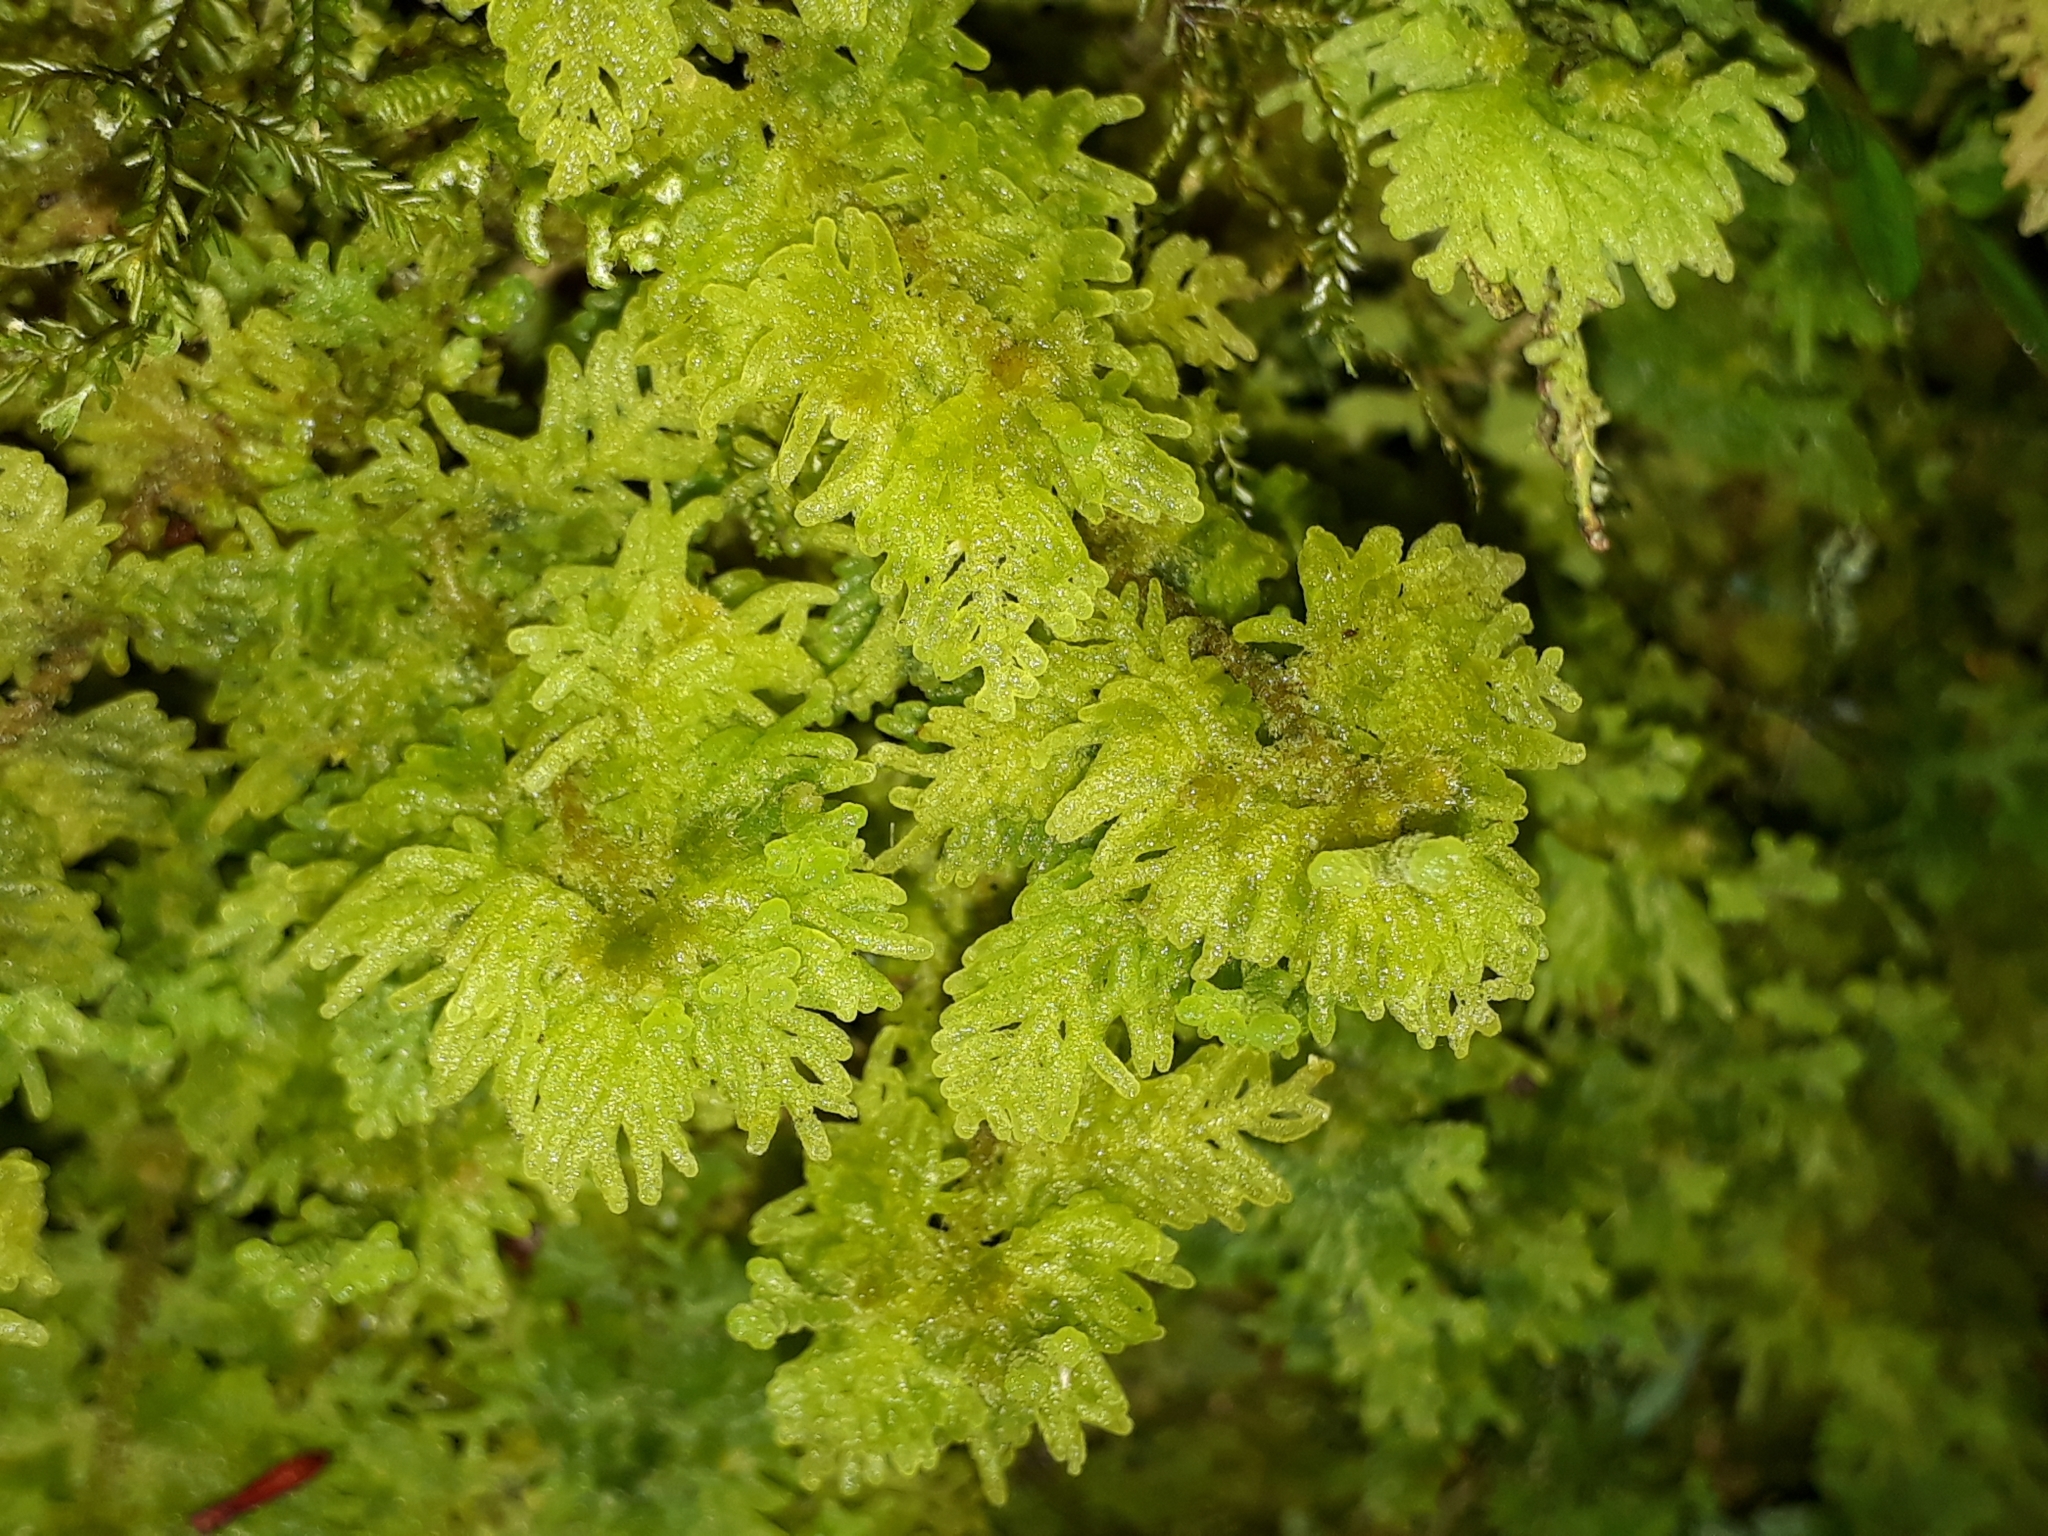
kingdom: Plantae
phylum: Marchantiophyta
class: Jungermanniopsida
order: Jungermanniales
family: Trichocoleaceae
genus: Trichocolea
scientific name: Trichocolea mollissima
